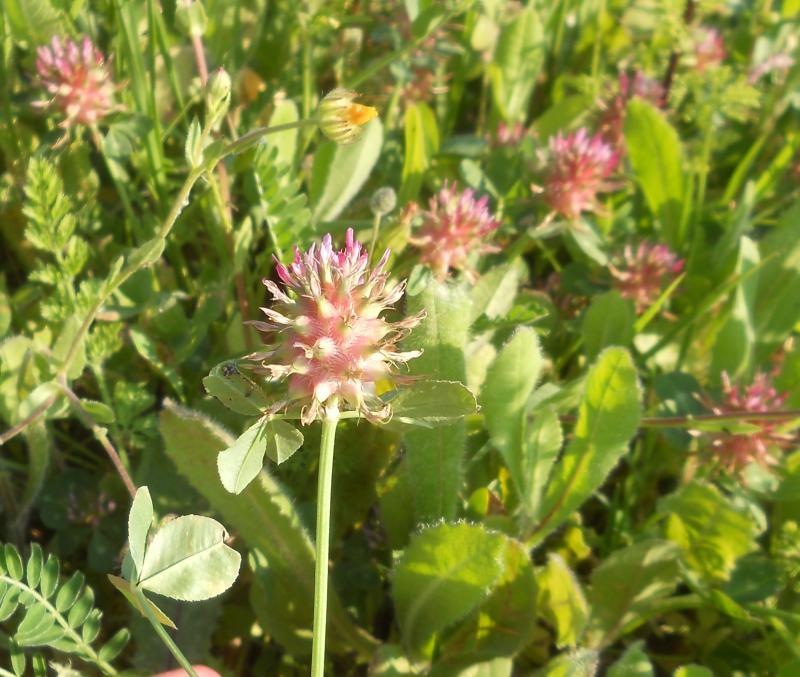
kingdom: Plantae
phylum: Tracheophyta
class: Magnoliopsida
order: Fabales
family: Fabaceae
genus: Trifolium
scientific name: Trifolium spumosum
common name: Mediterranean clover
